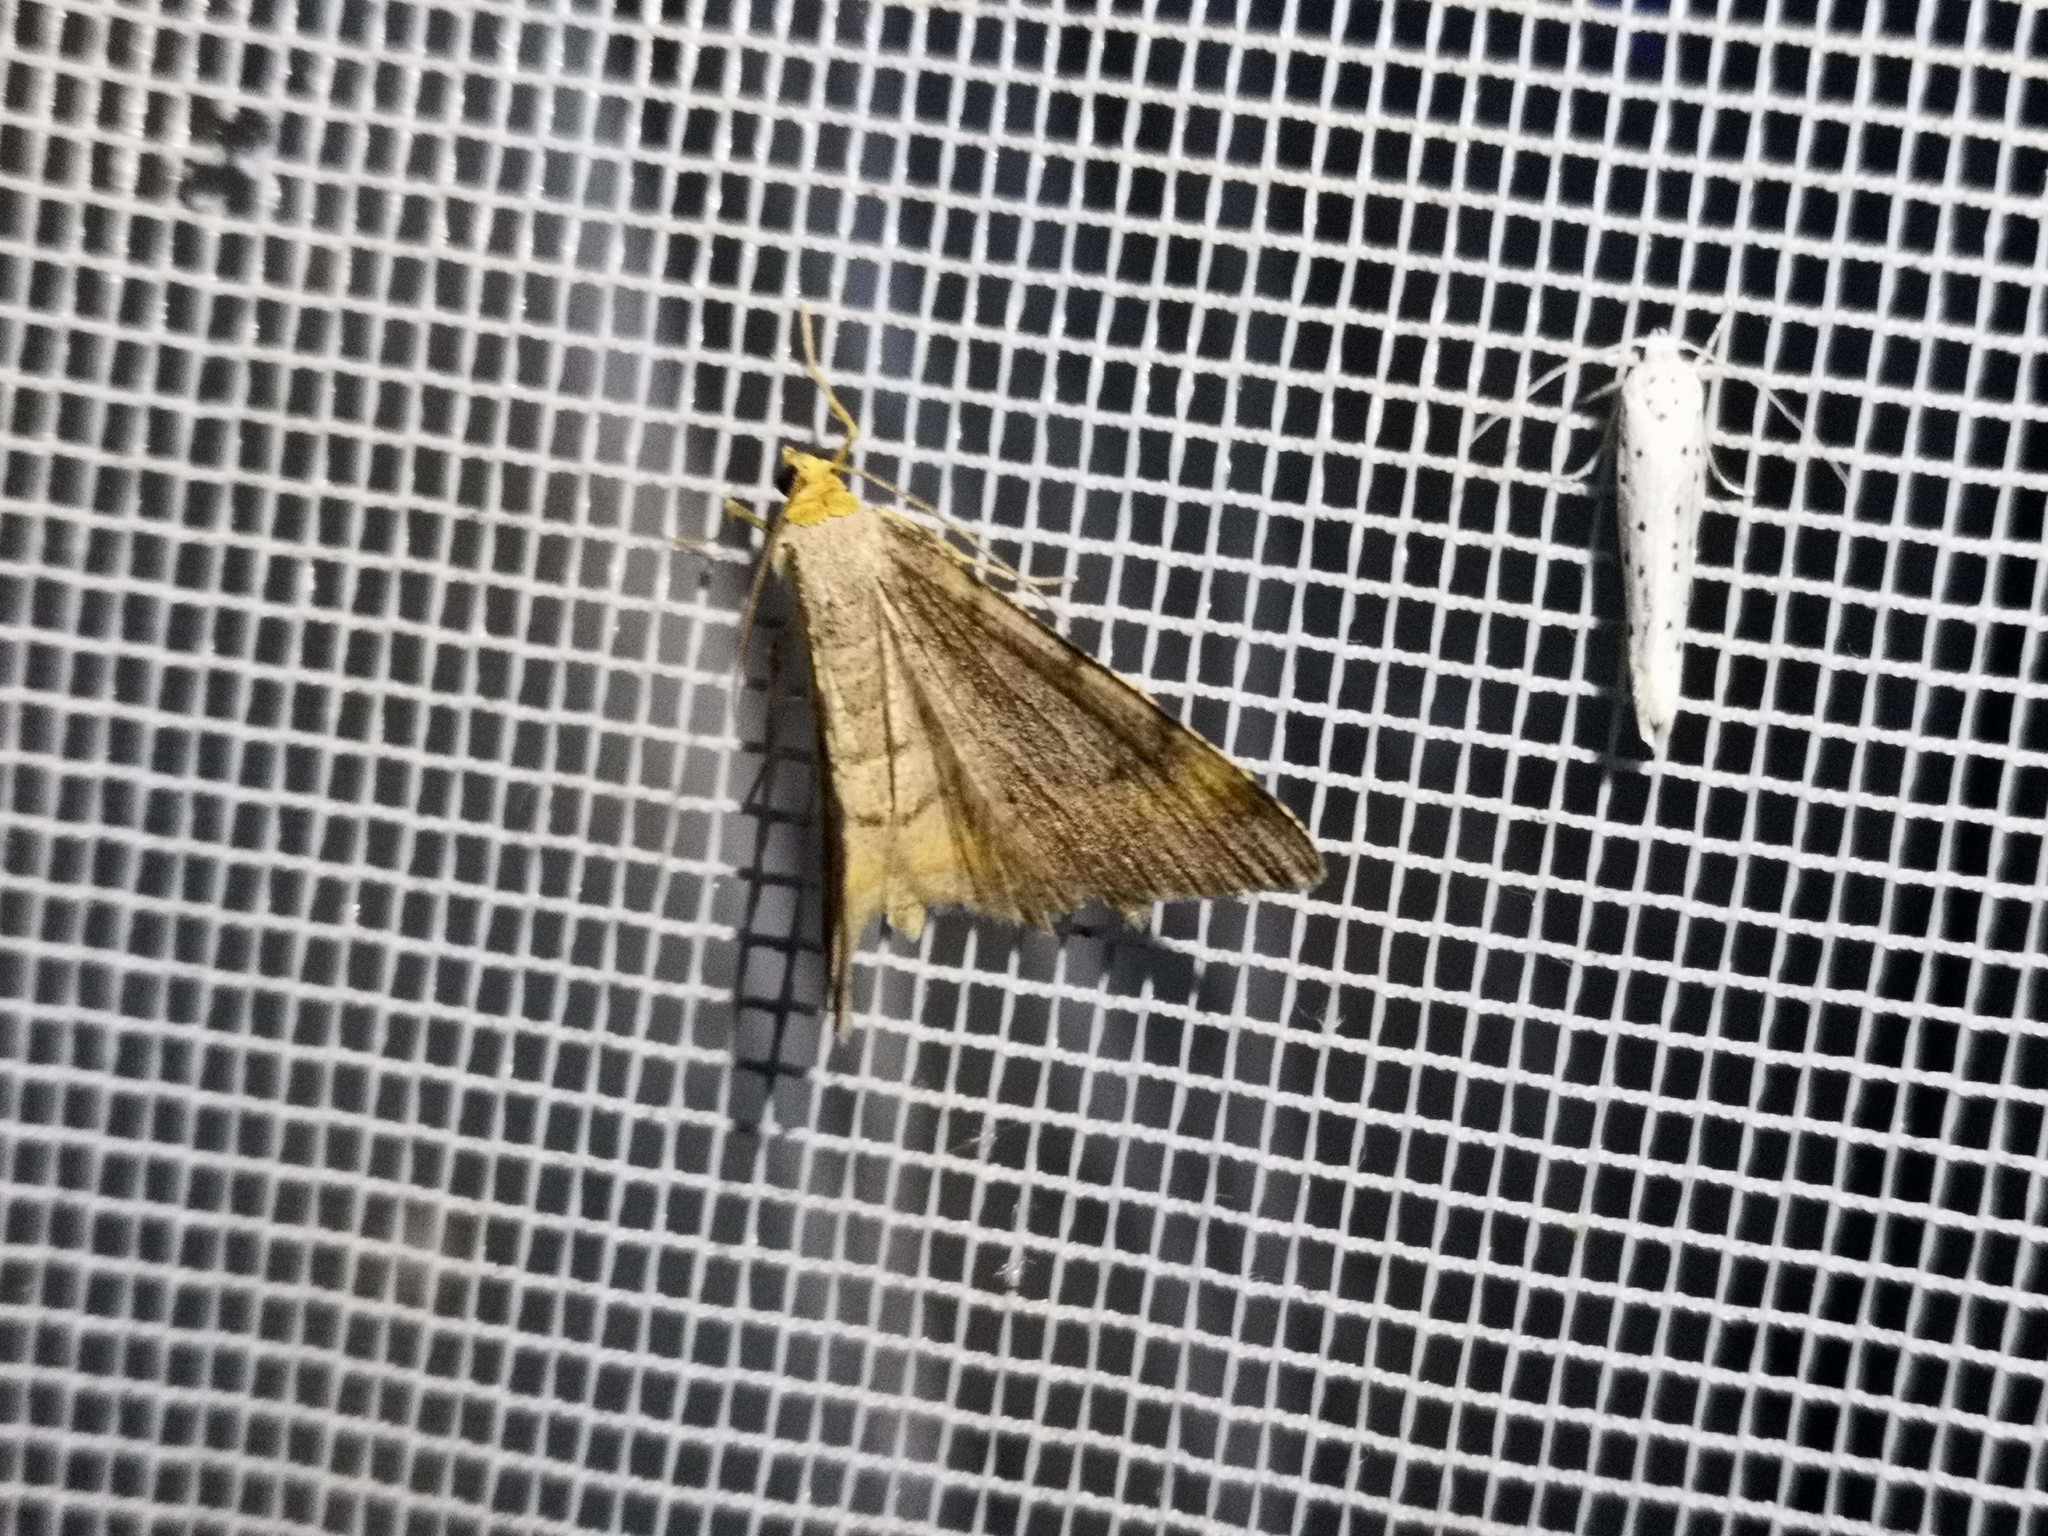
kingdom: Animalia
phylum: Arthropoda
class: Insecta
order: Lepidoptera
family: Geometridae
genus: Macaria
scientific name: Macaria liturata
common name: Tawny-barred angle
